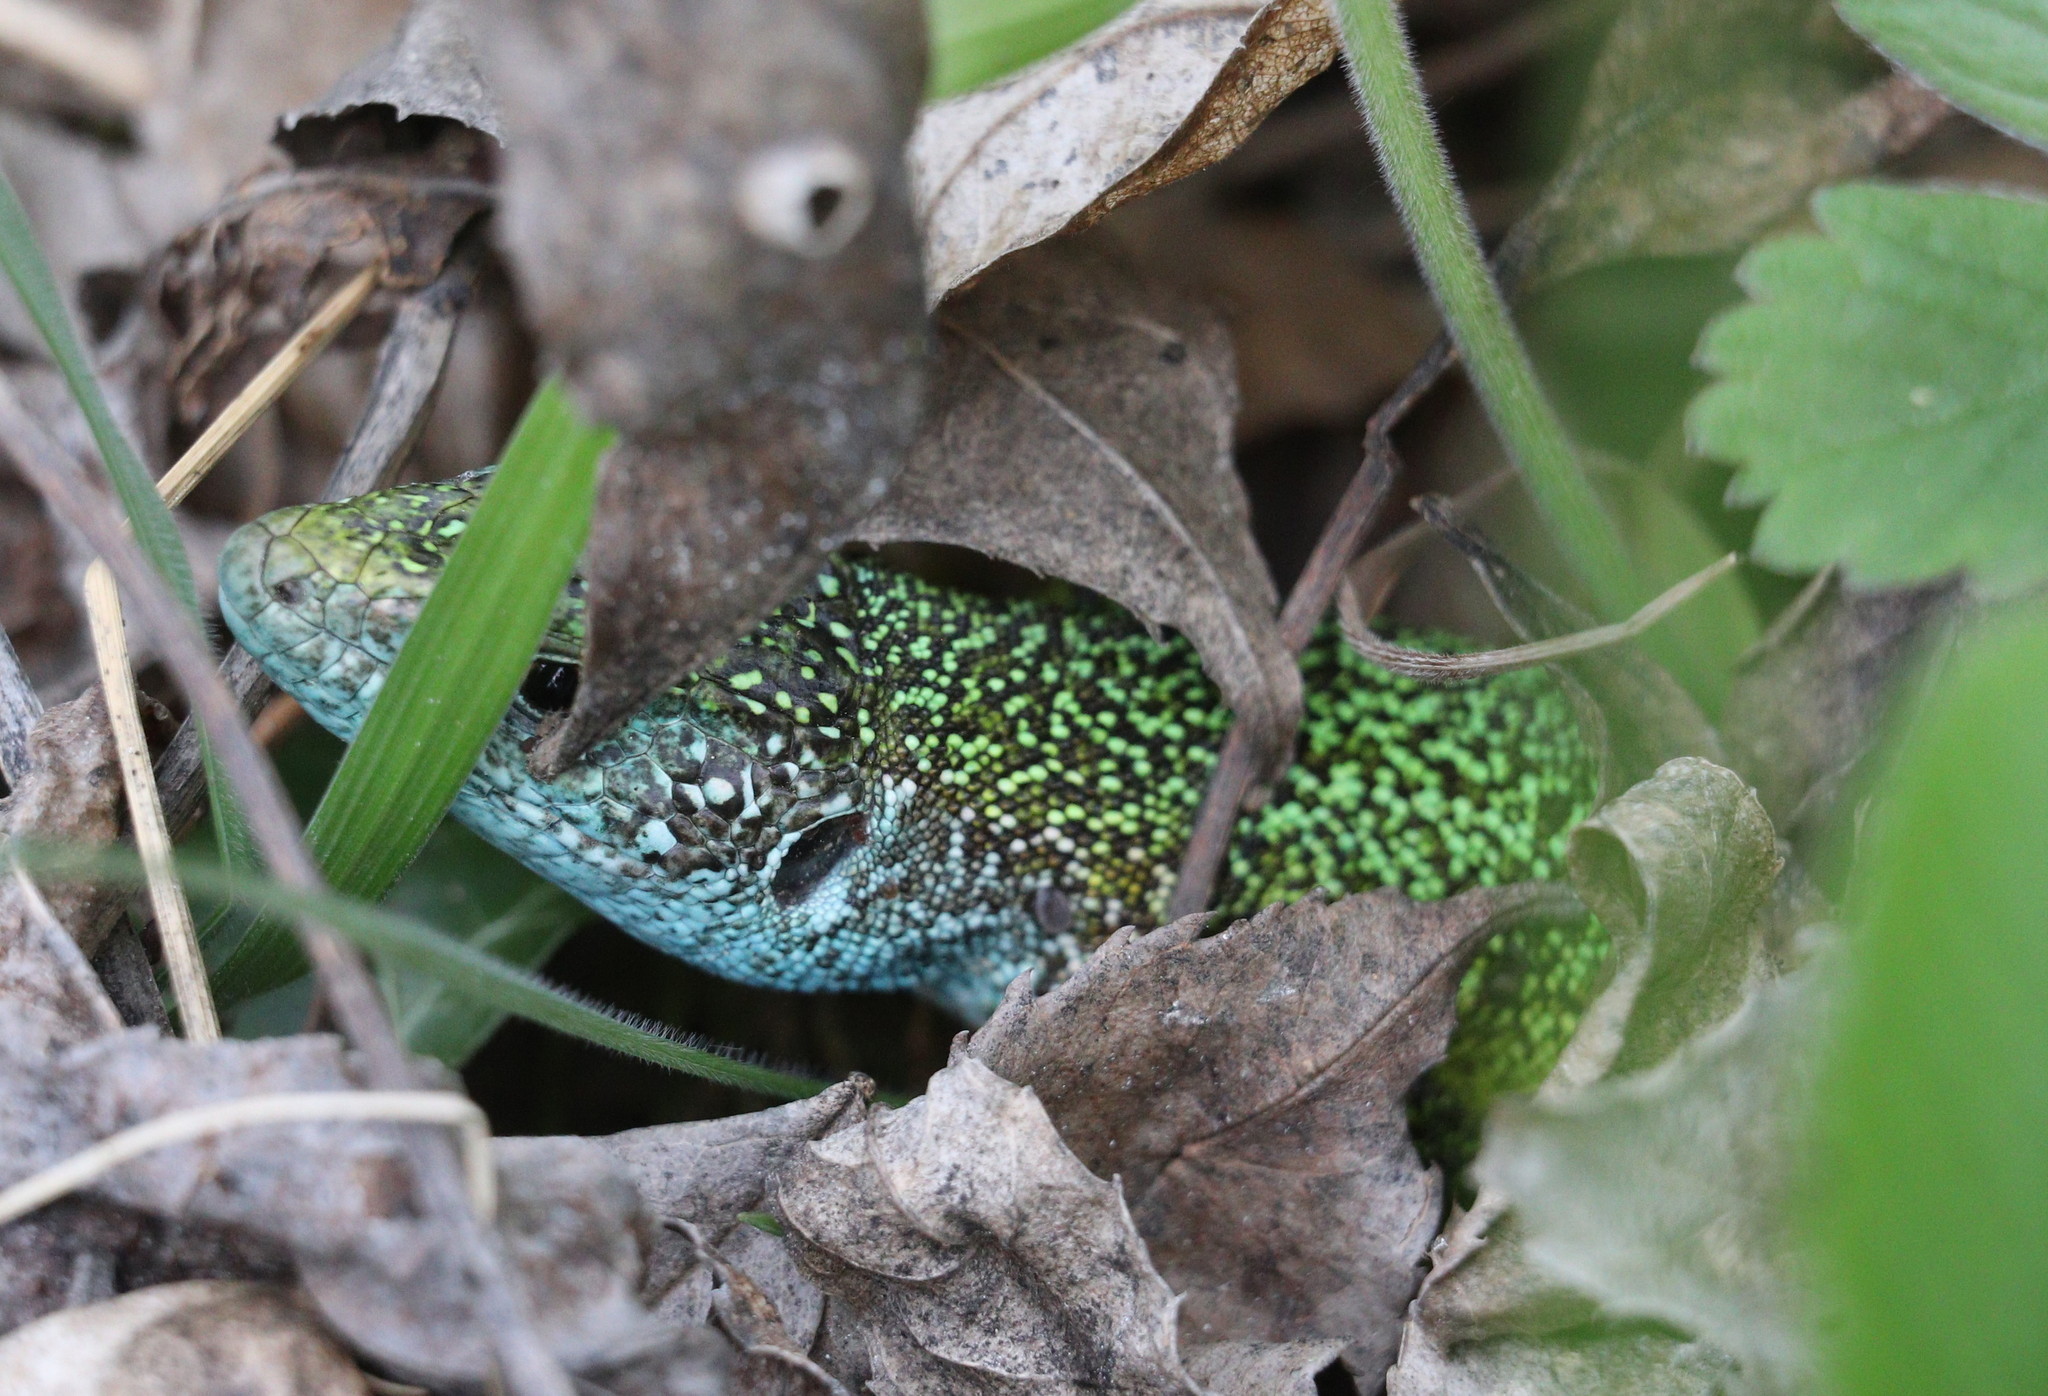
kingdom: Animalia
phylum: Chordata
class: Squamata
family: Lacertidae
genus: Lacerta
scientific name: Lacerta viridis
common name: European green lizard
